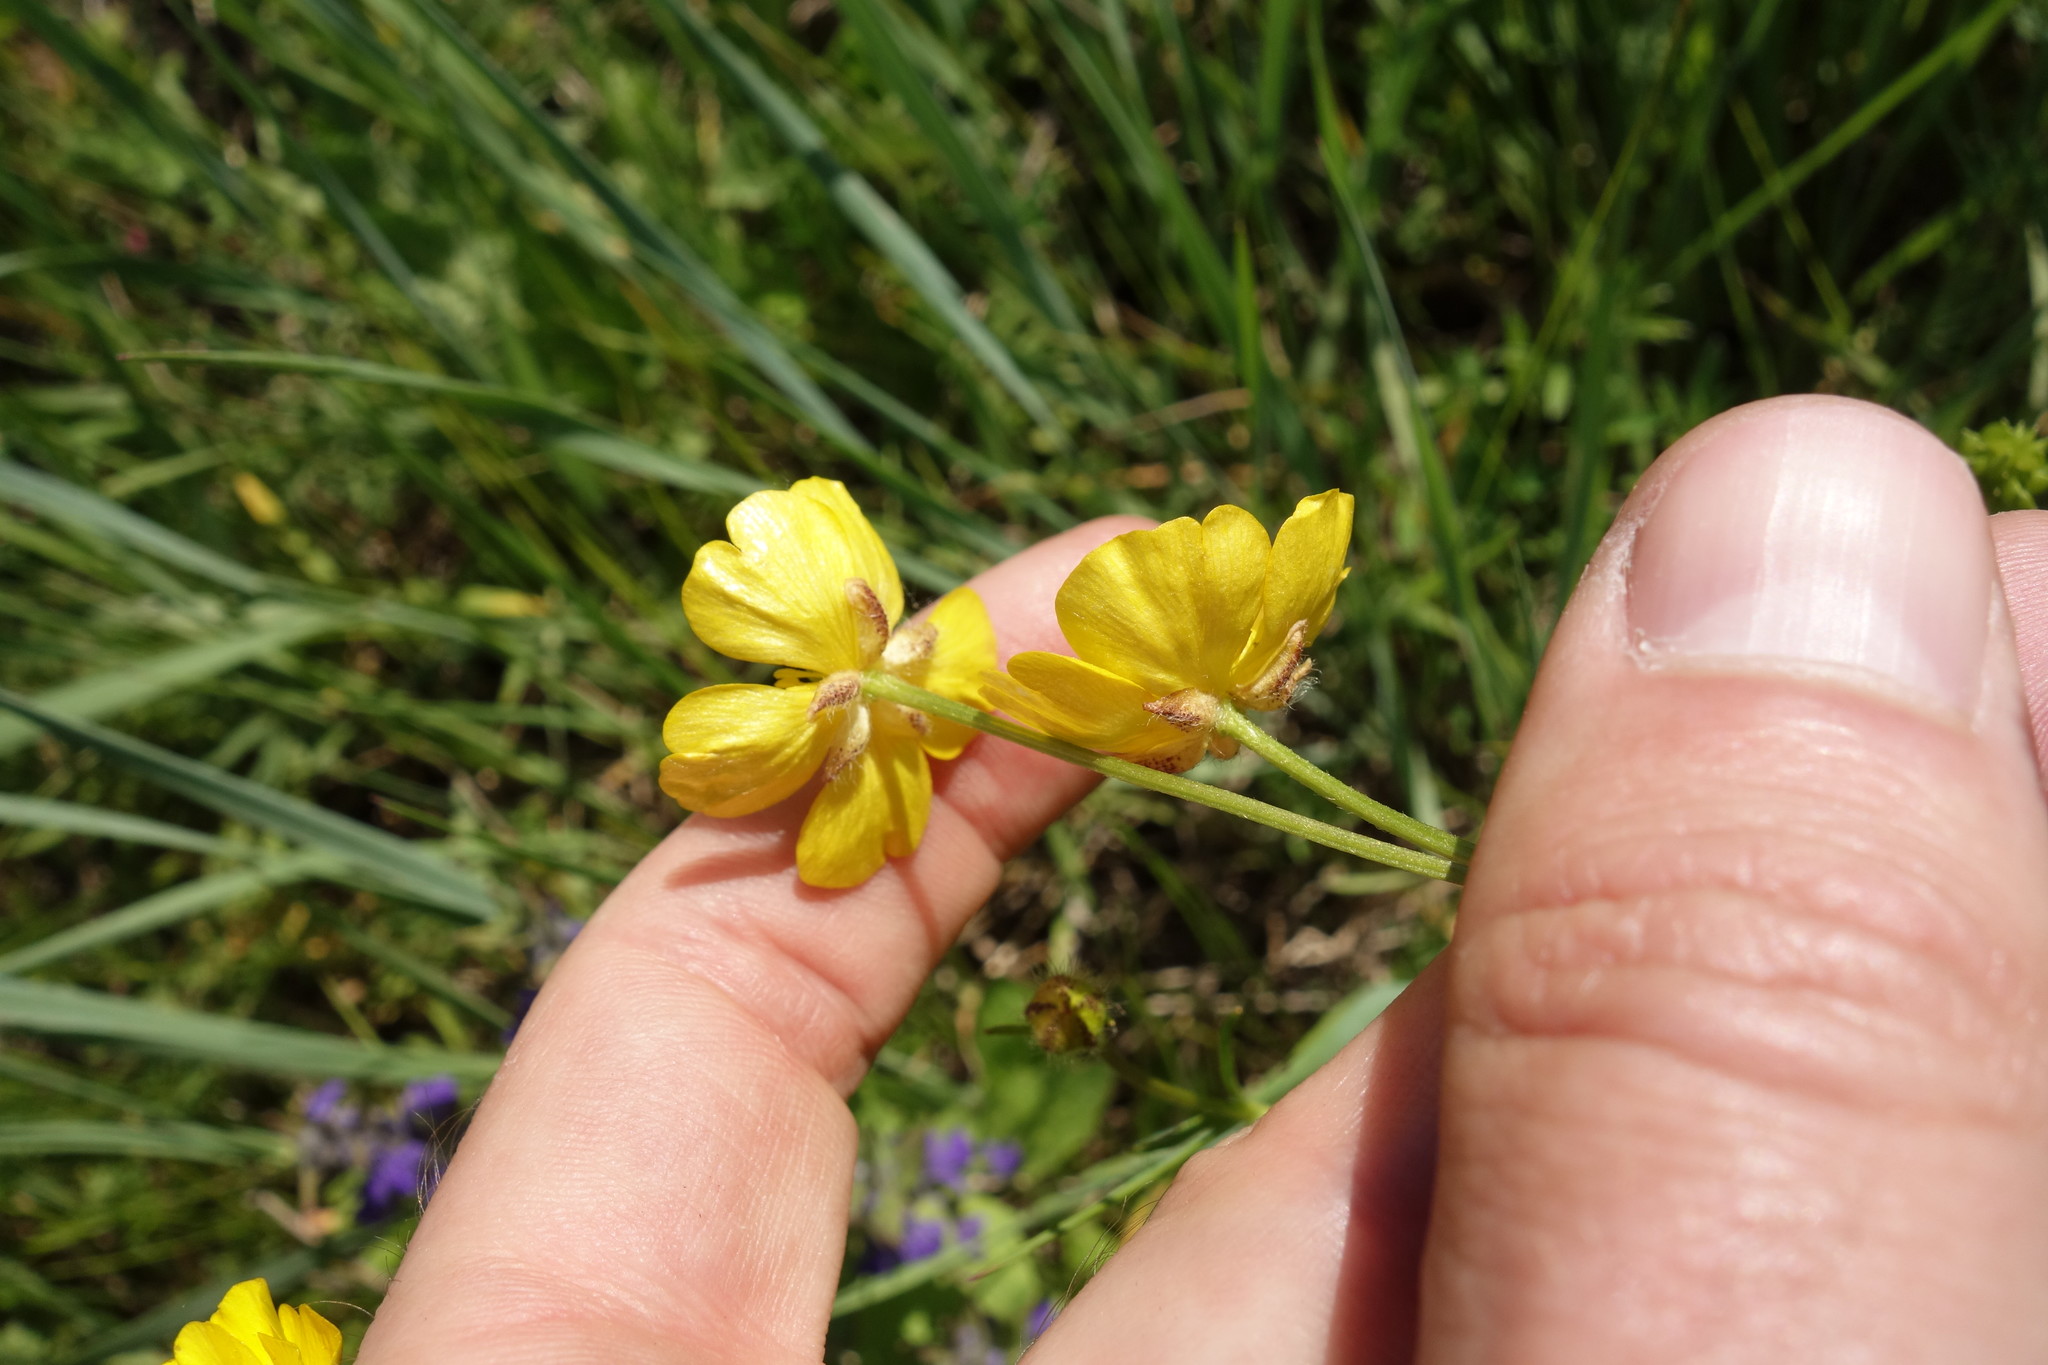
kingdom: Plantae
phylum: Tracheophyta
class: Magnoliopsida
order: Ranunculales
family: Ranunculaceae
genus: Ranunculus
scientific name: Ranunculus polyanthemos
